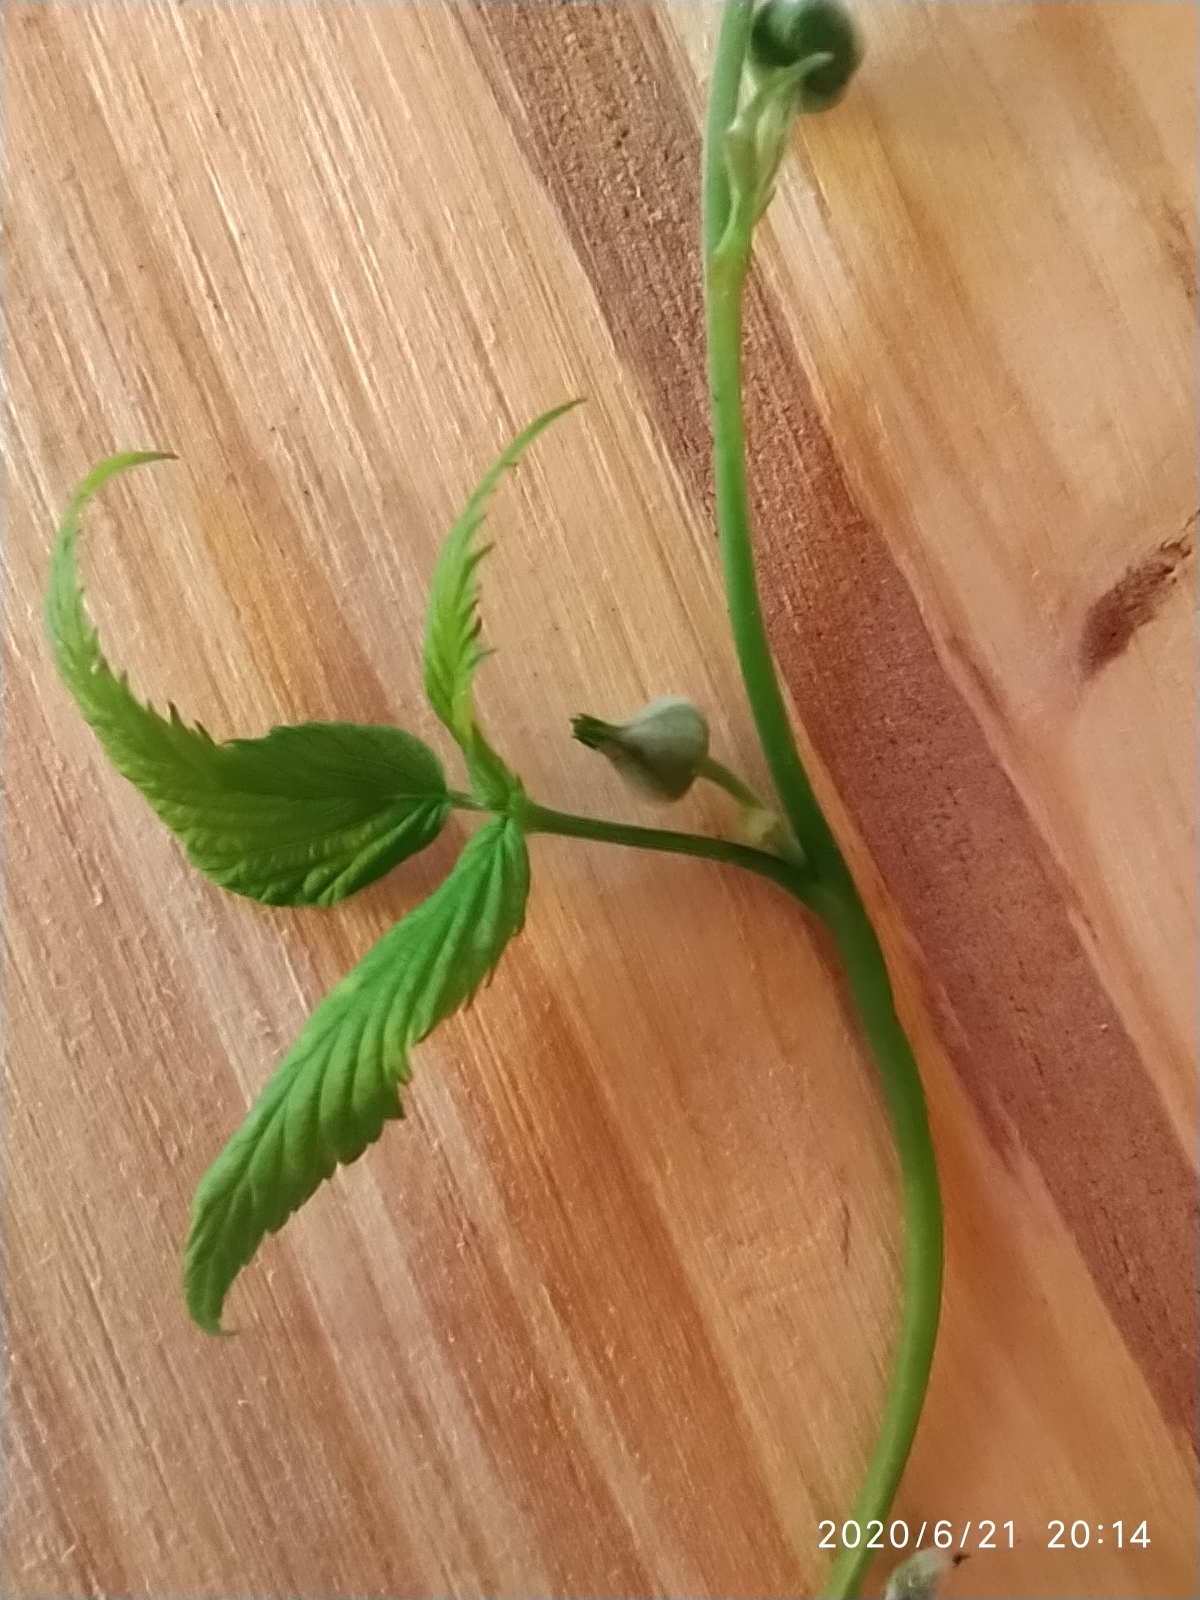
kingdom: Plantae
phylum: Tracheophyta
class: Magnoliopsida
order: Rosales
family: Rosaceae
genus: Rubus
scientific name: Rubus idaeus
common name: Raspberry
